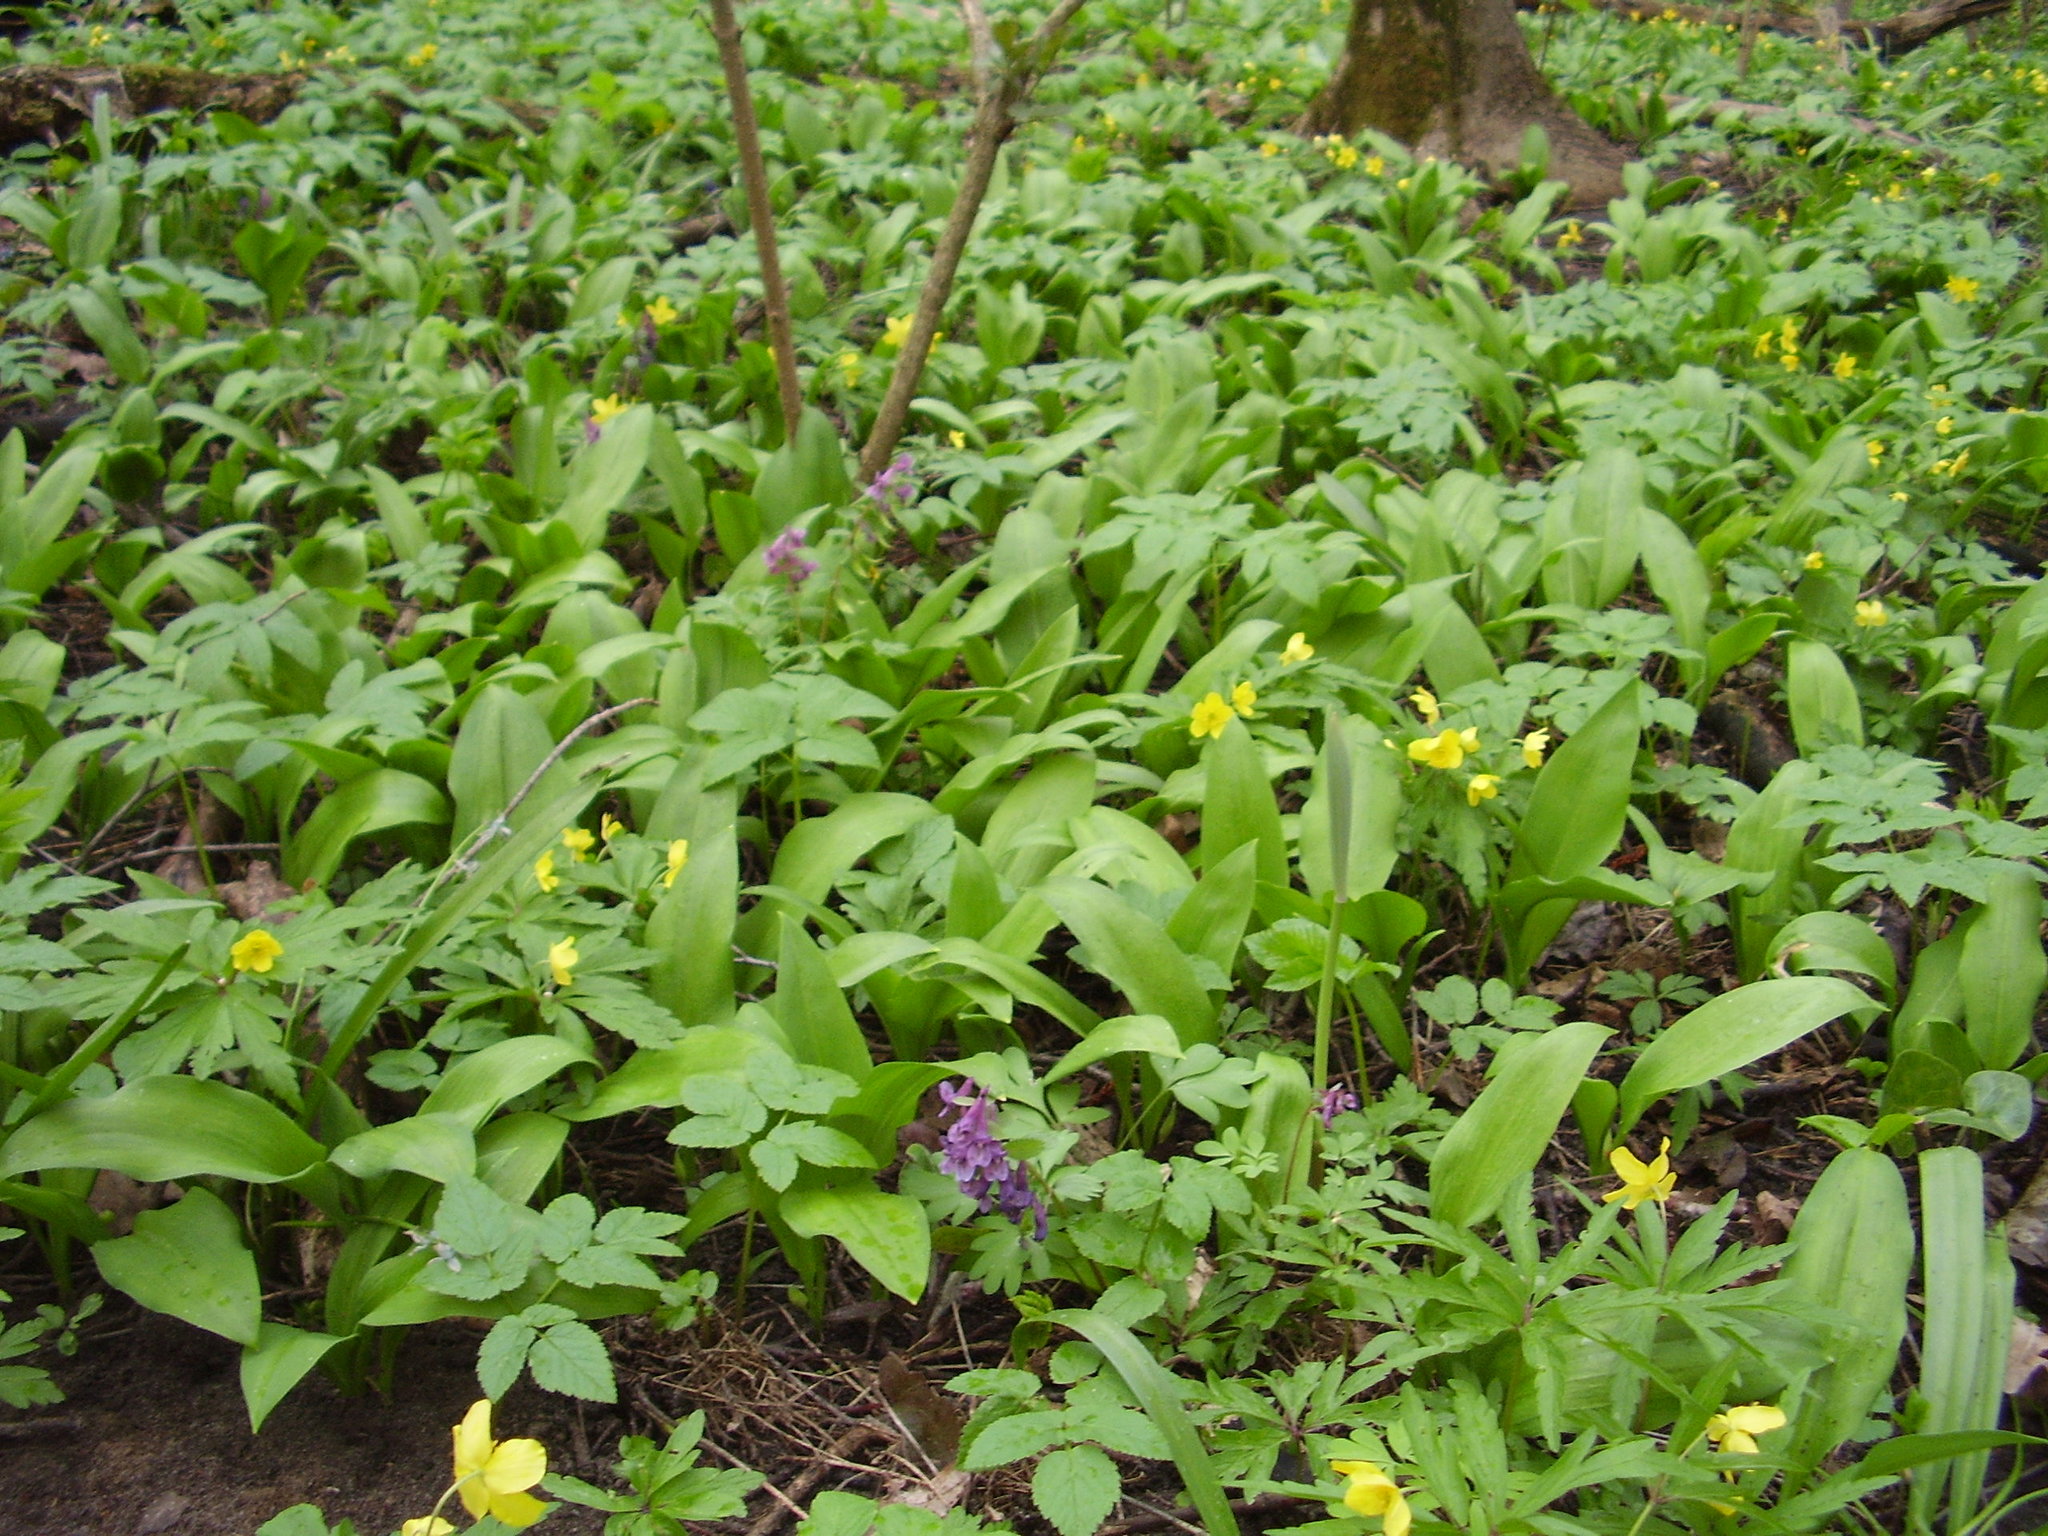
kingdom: Plantae
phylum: Tracheophyta
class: Liliopsida
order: Asparagales
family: Amaryllidaceae
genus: Allium
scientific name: Allium ursinum
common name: Ramsons
